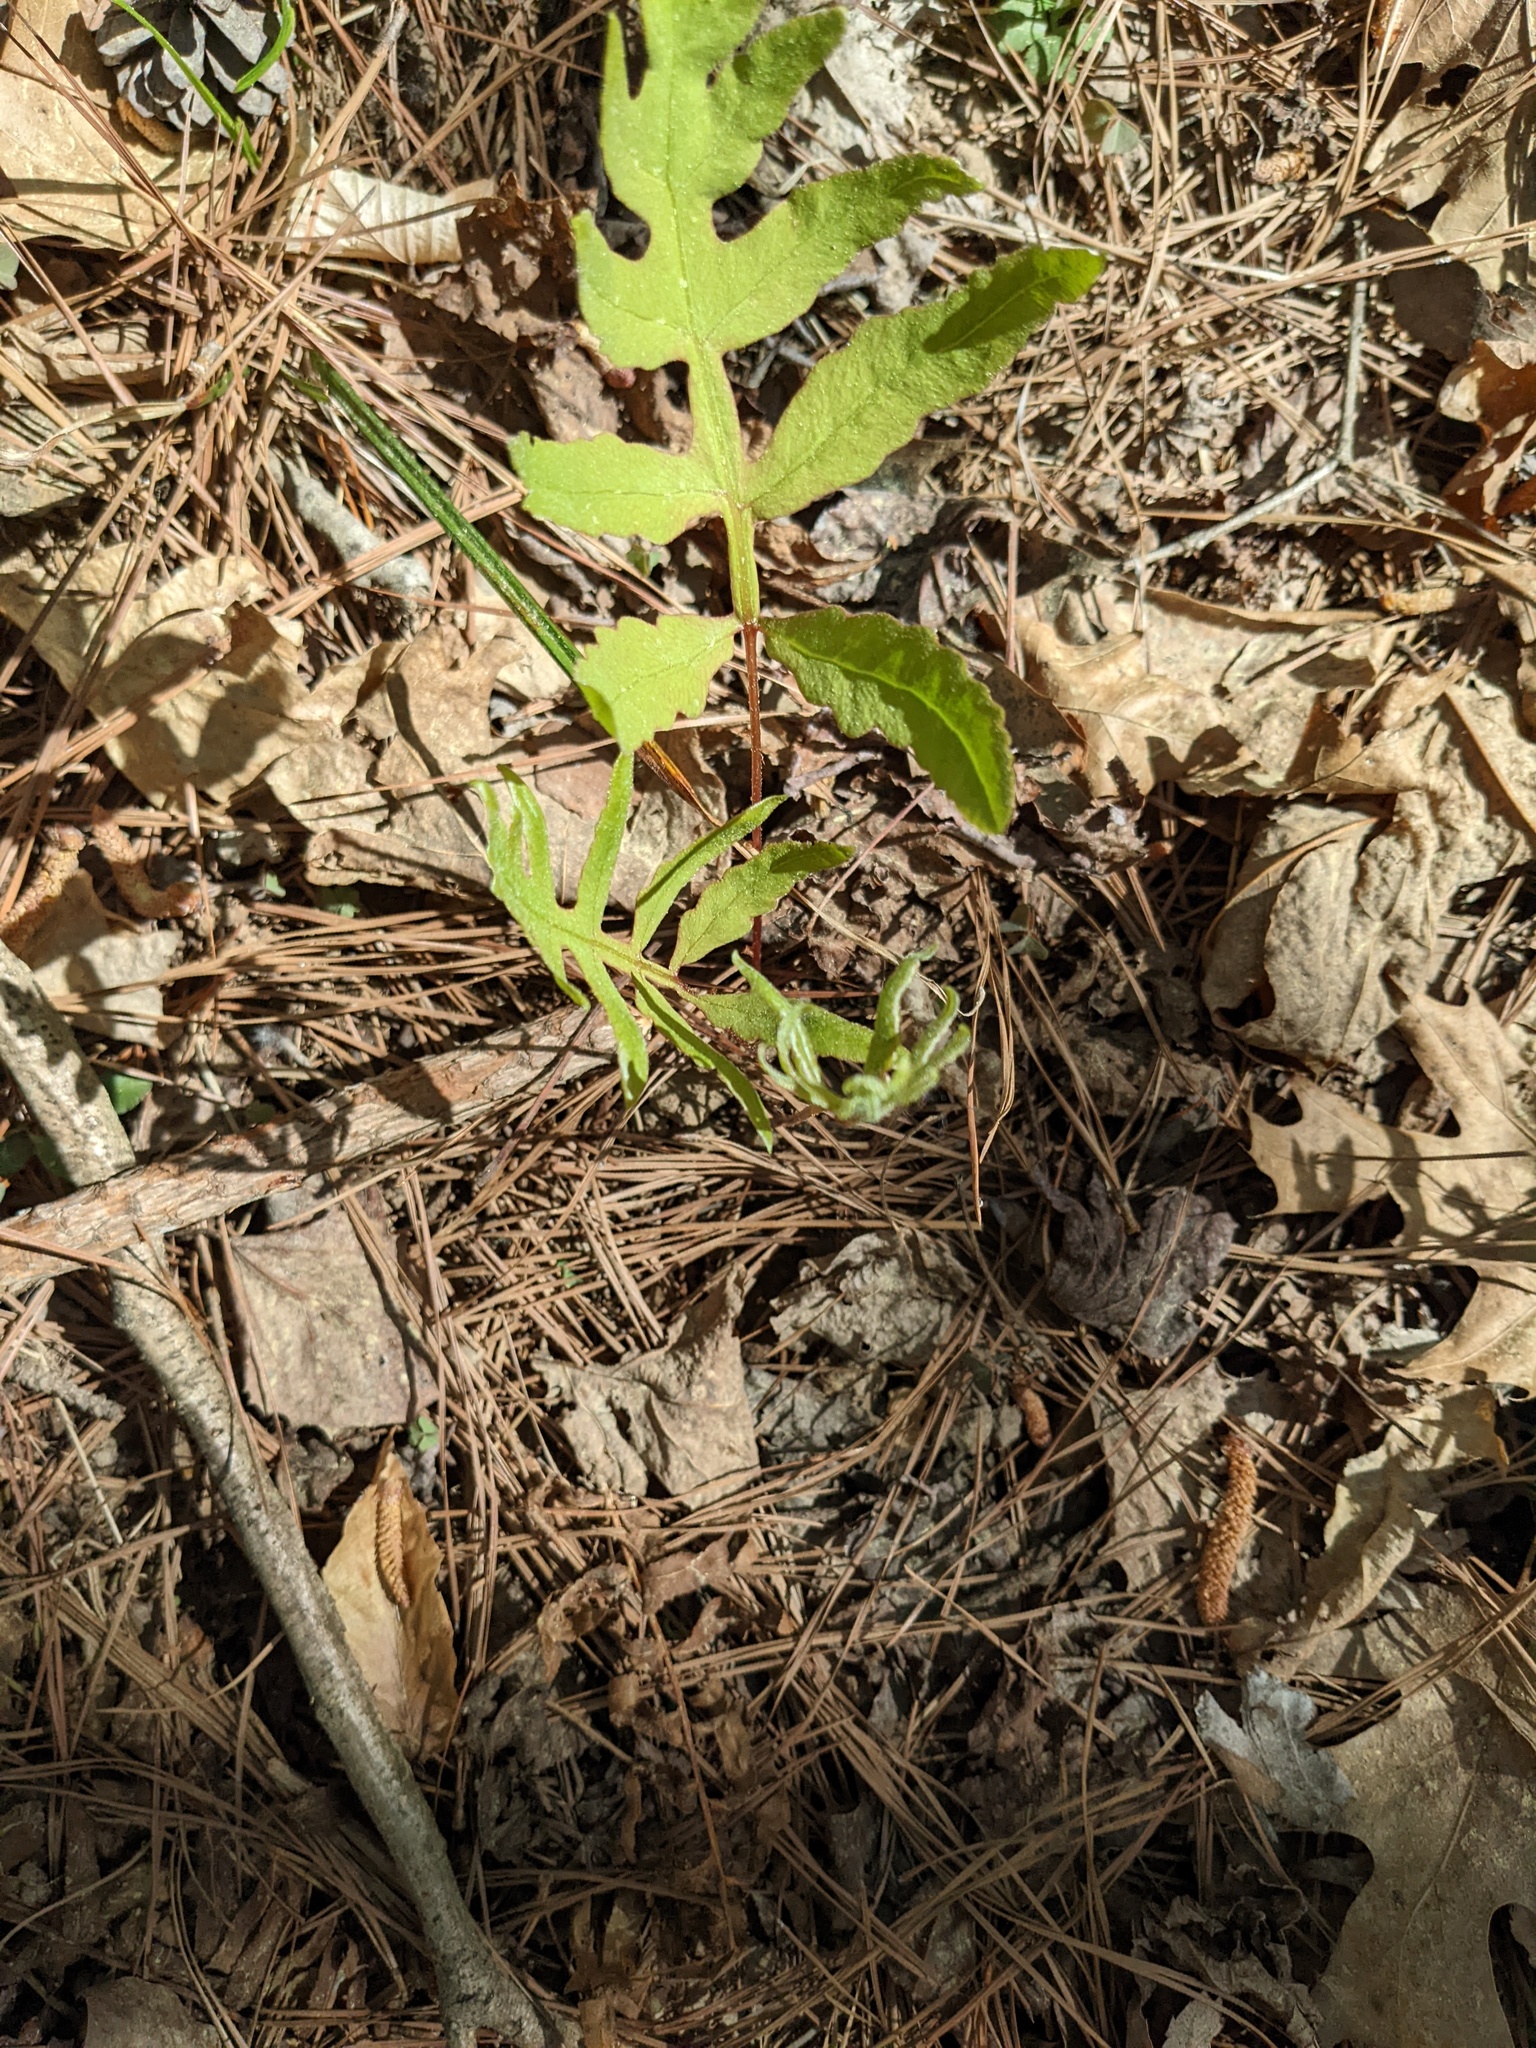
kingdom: Plantae
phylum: Tracheophyta
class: Polypodiopsida
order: Polypodiales
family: Onocleaceae
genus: Onoclea
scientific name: Onoclea sensibilis
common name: Sensitive fern
